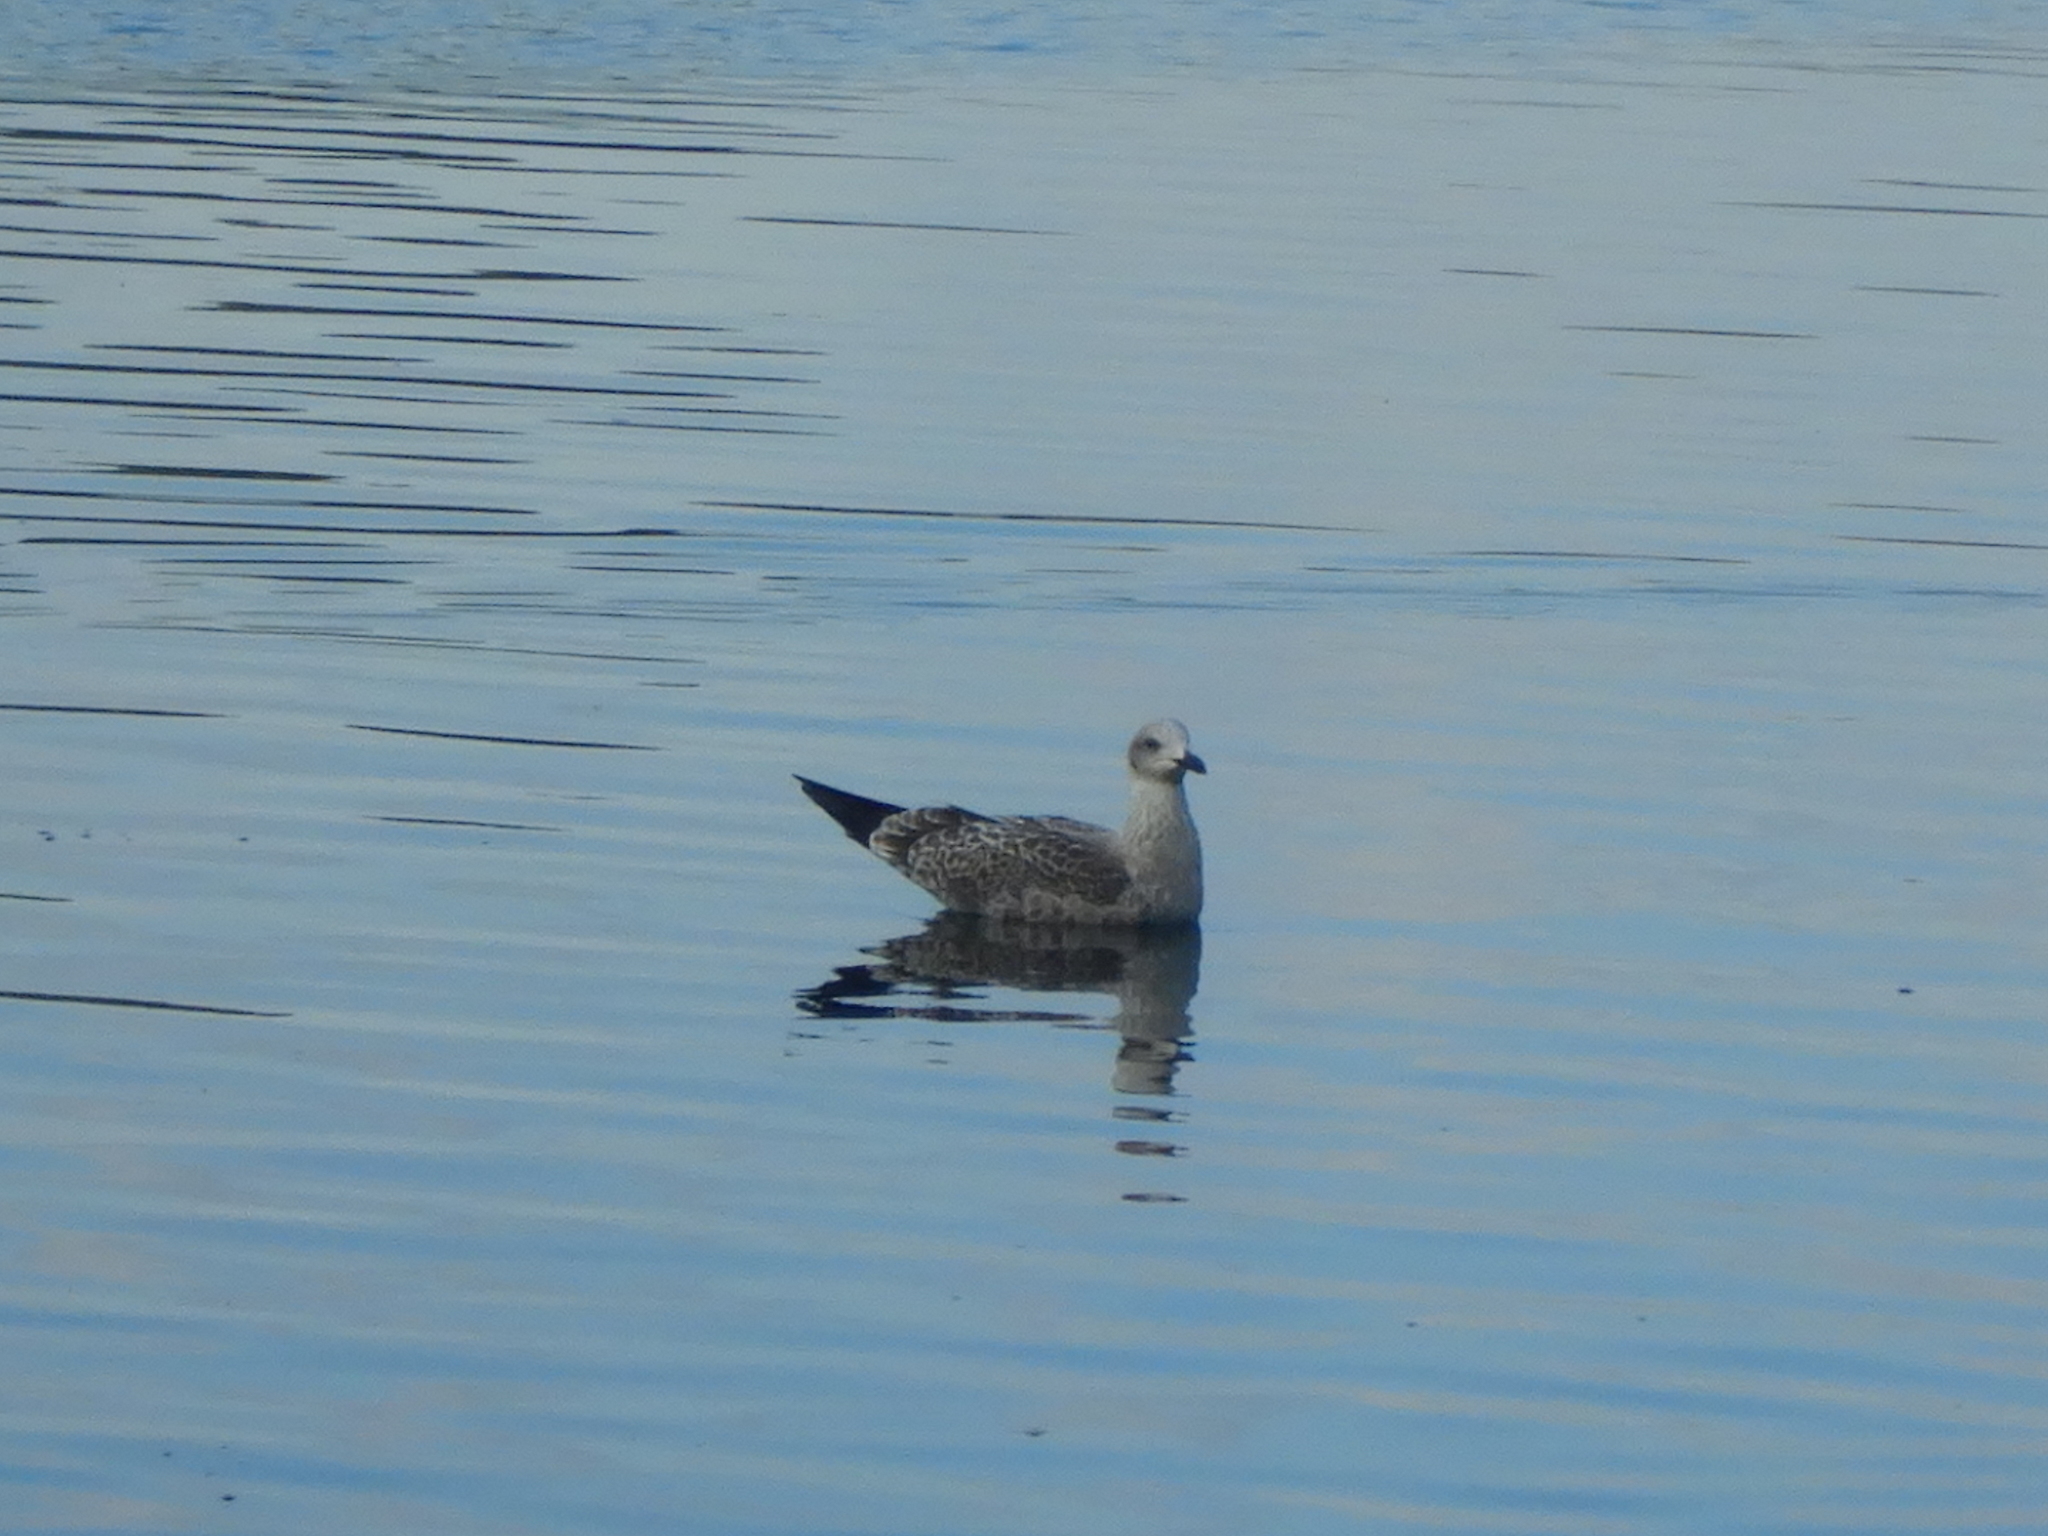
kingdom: Animalia
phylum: Chordata
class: Aves
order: Charadriiformes
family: Laridae
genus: Larus
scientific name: Larus argentatus
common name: Herring gull
